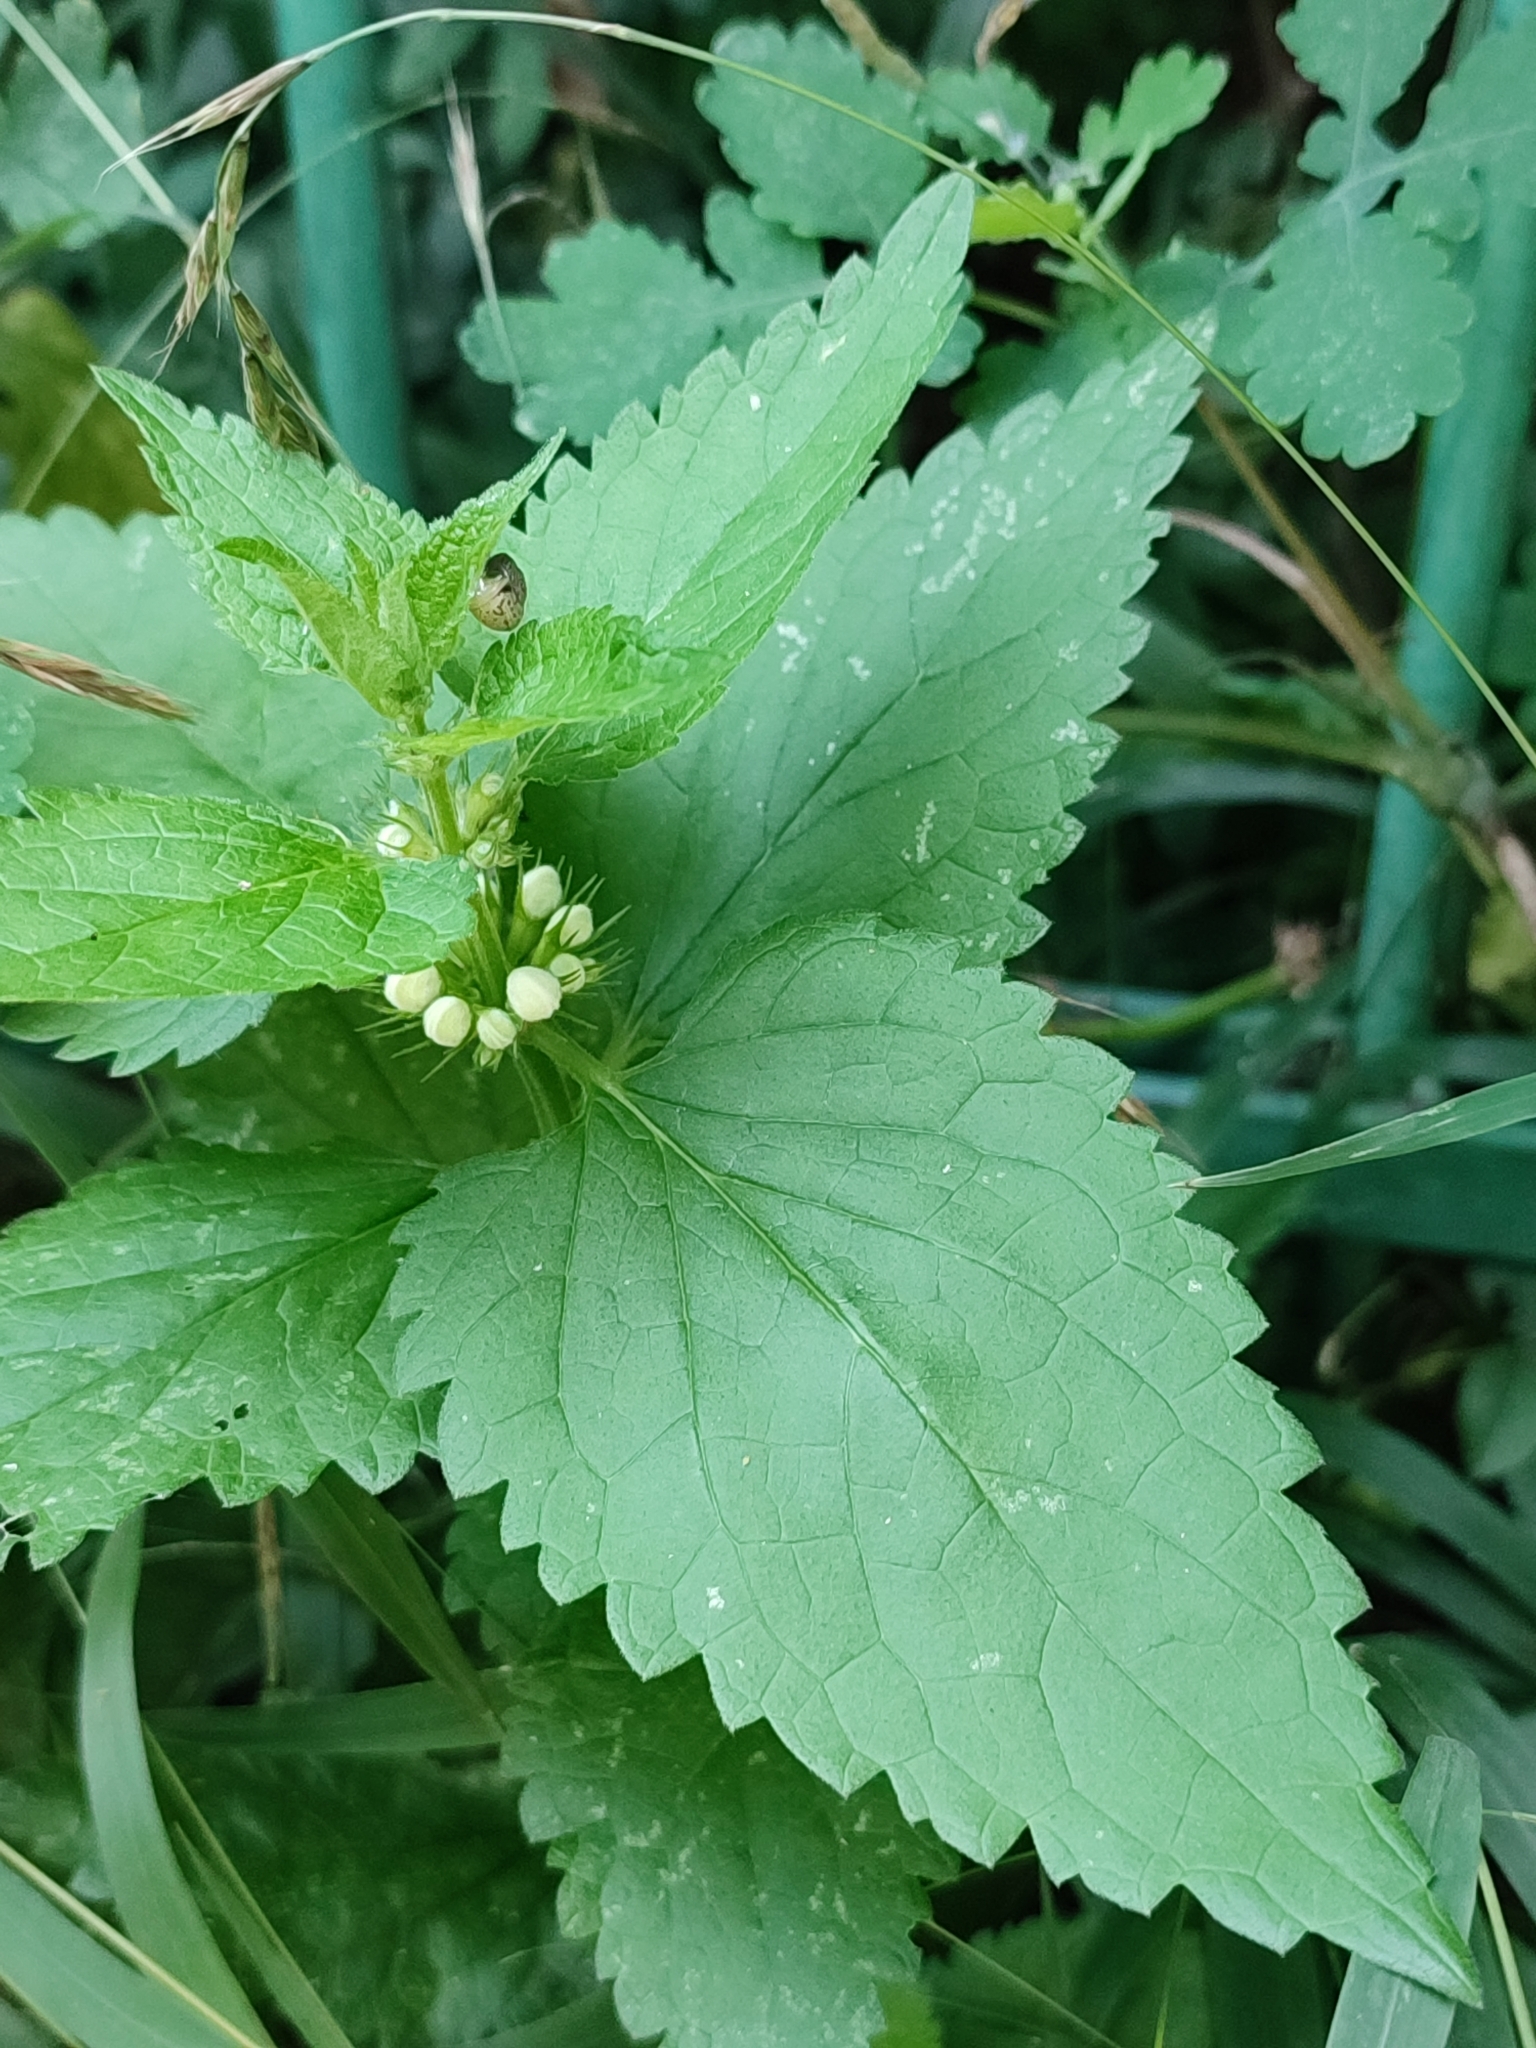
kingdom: Plantae
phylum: Tracheophyta
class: Magnoliopsida
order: Lamiales
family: Lamiaceae
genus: Lamium
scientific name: Lamium album
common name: White dead-nettle
